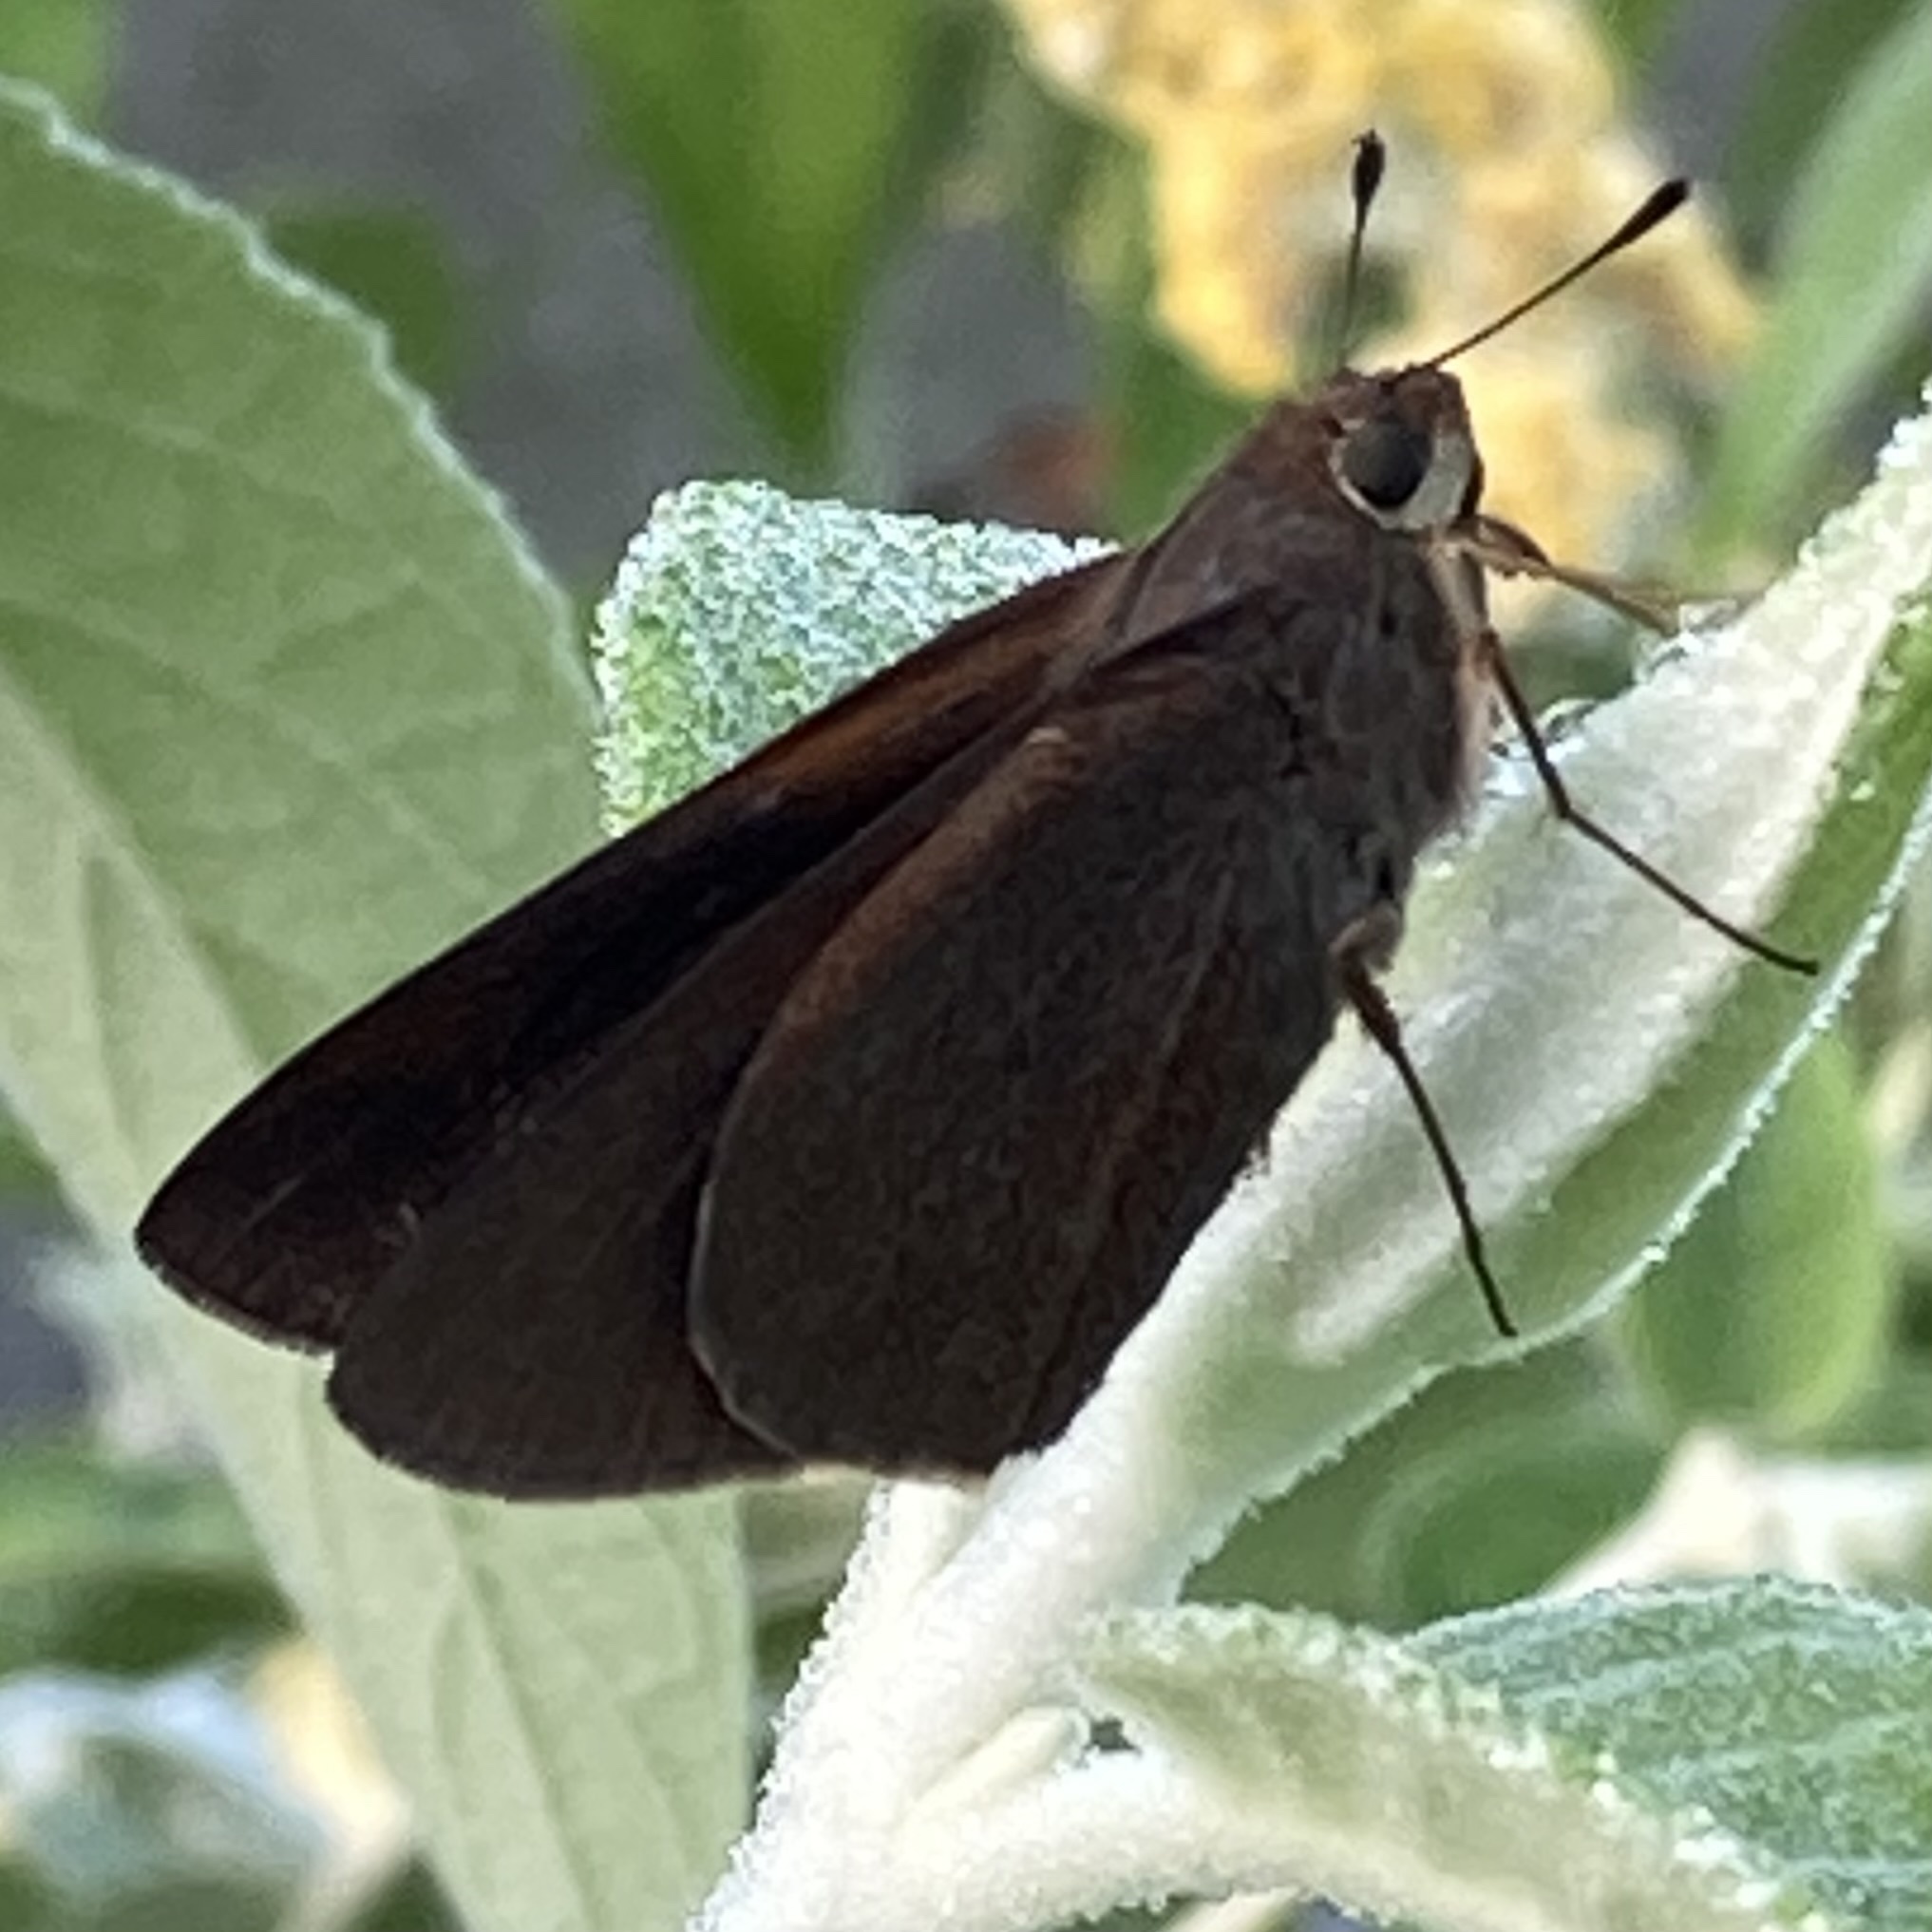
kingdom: Animalia
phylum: Arthropoda
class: Insecta
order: Lepidoptera
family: Hesperiidae
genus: Asbolis
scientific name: Asbolis capucinus
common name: Monk skipper
